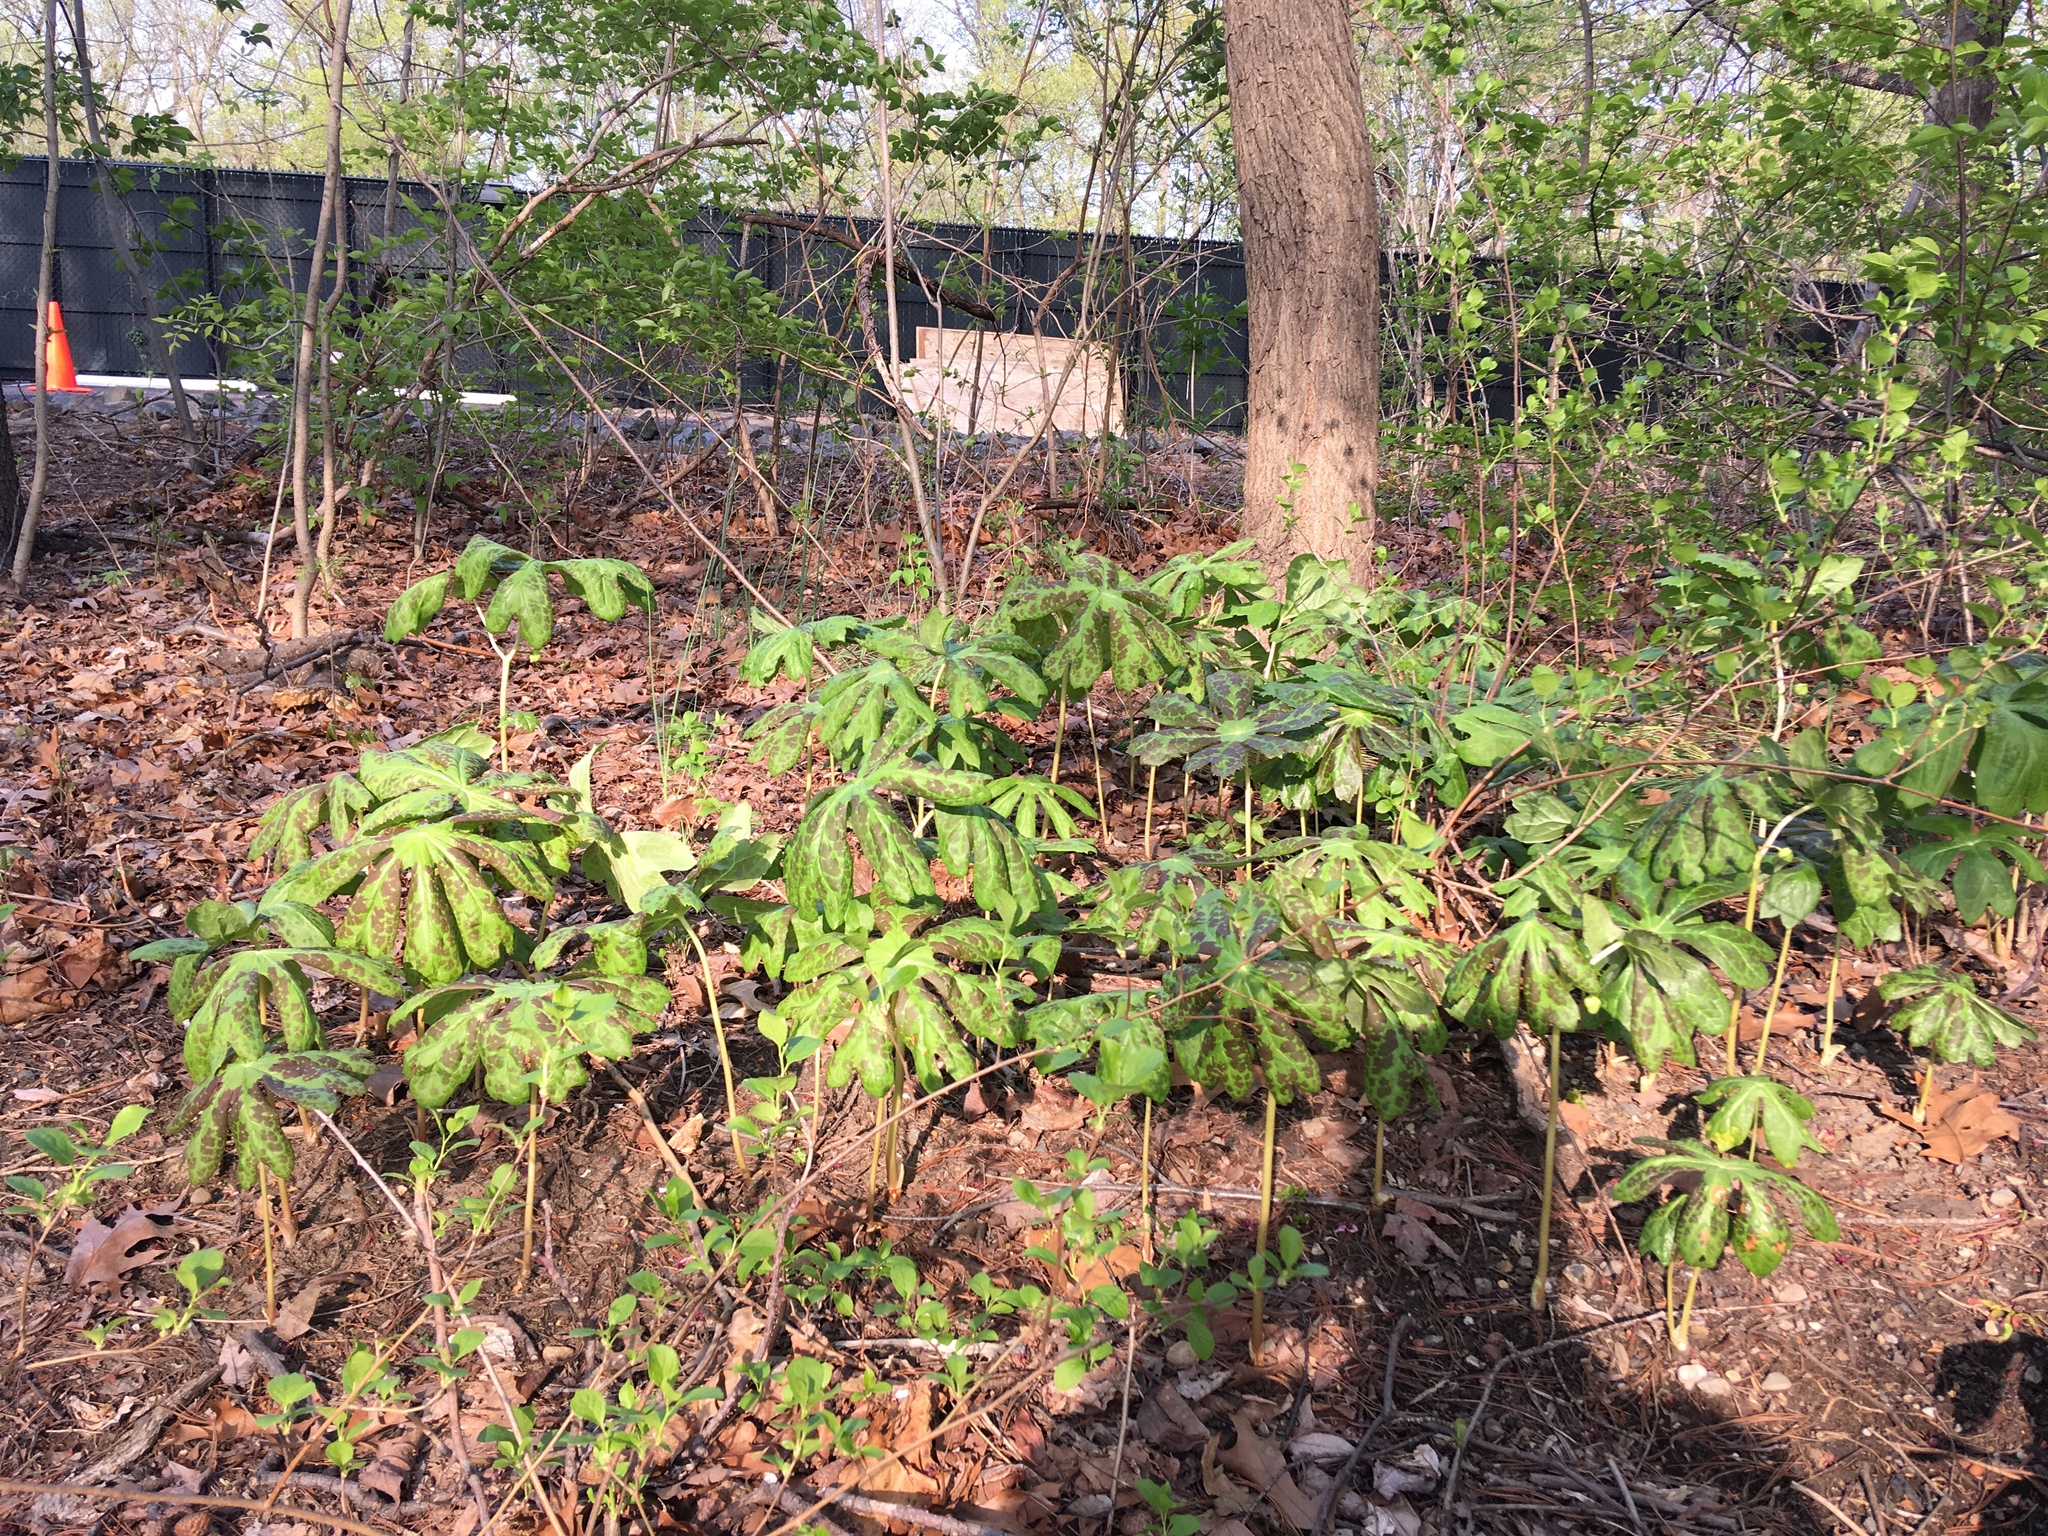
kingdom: Plantae
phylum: Tracheophyta
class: Magnoliopsida
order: Ranunculales
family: Berberidaceae
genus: Podophyllum
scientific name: Podophyllum peltatum
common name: Wild mandrake
